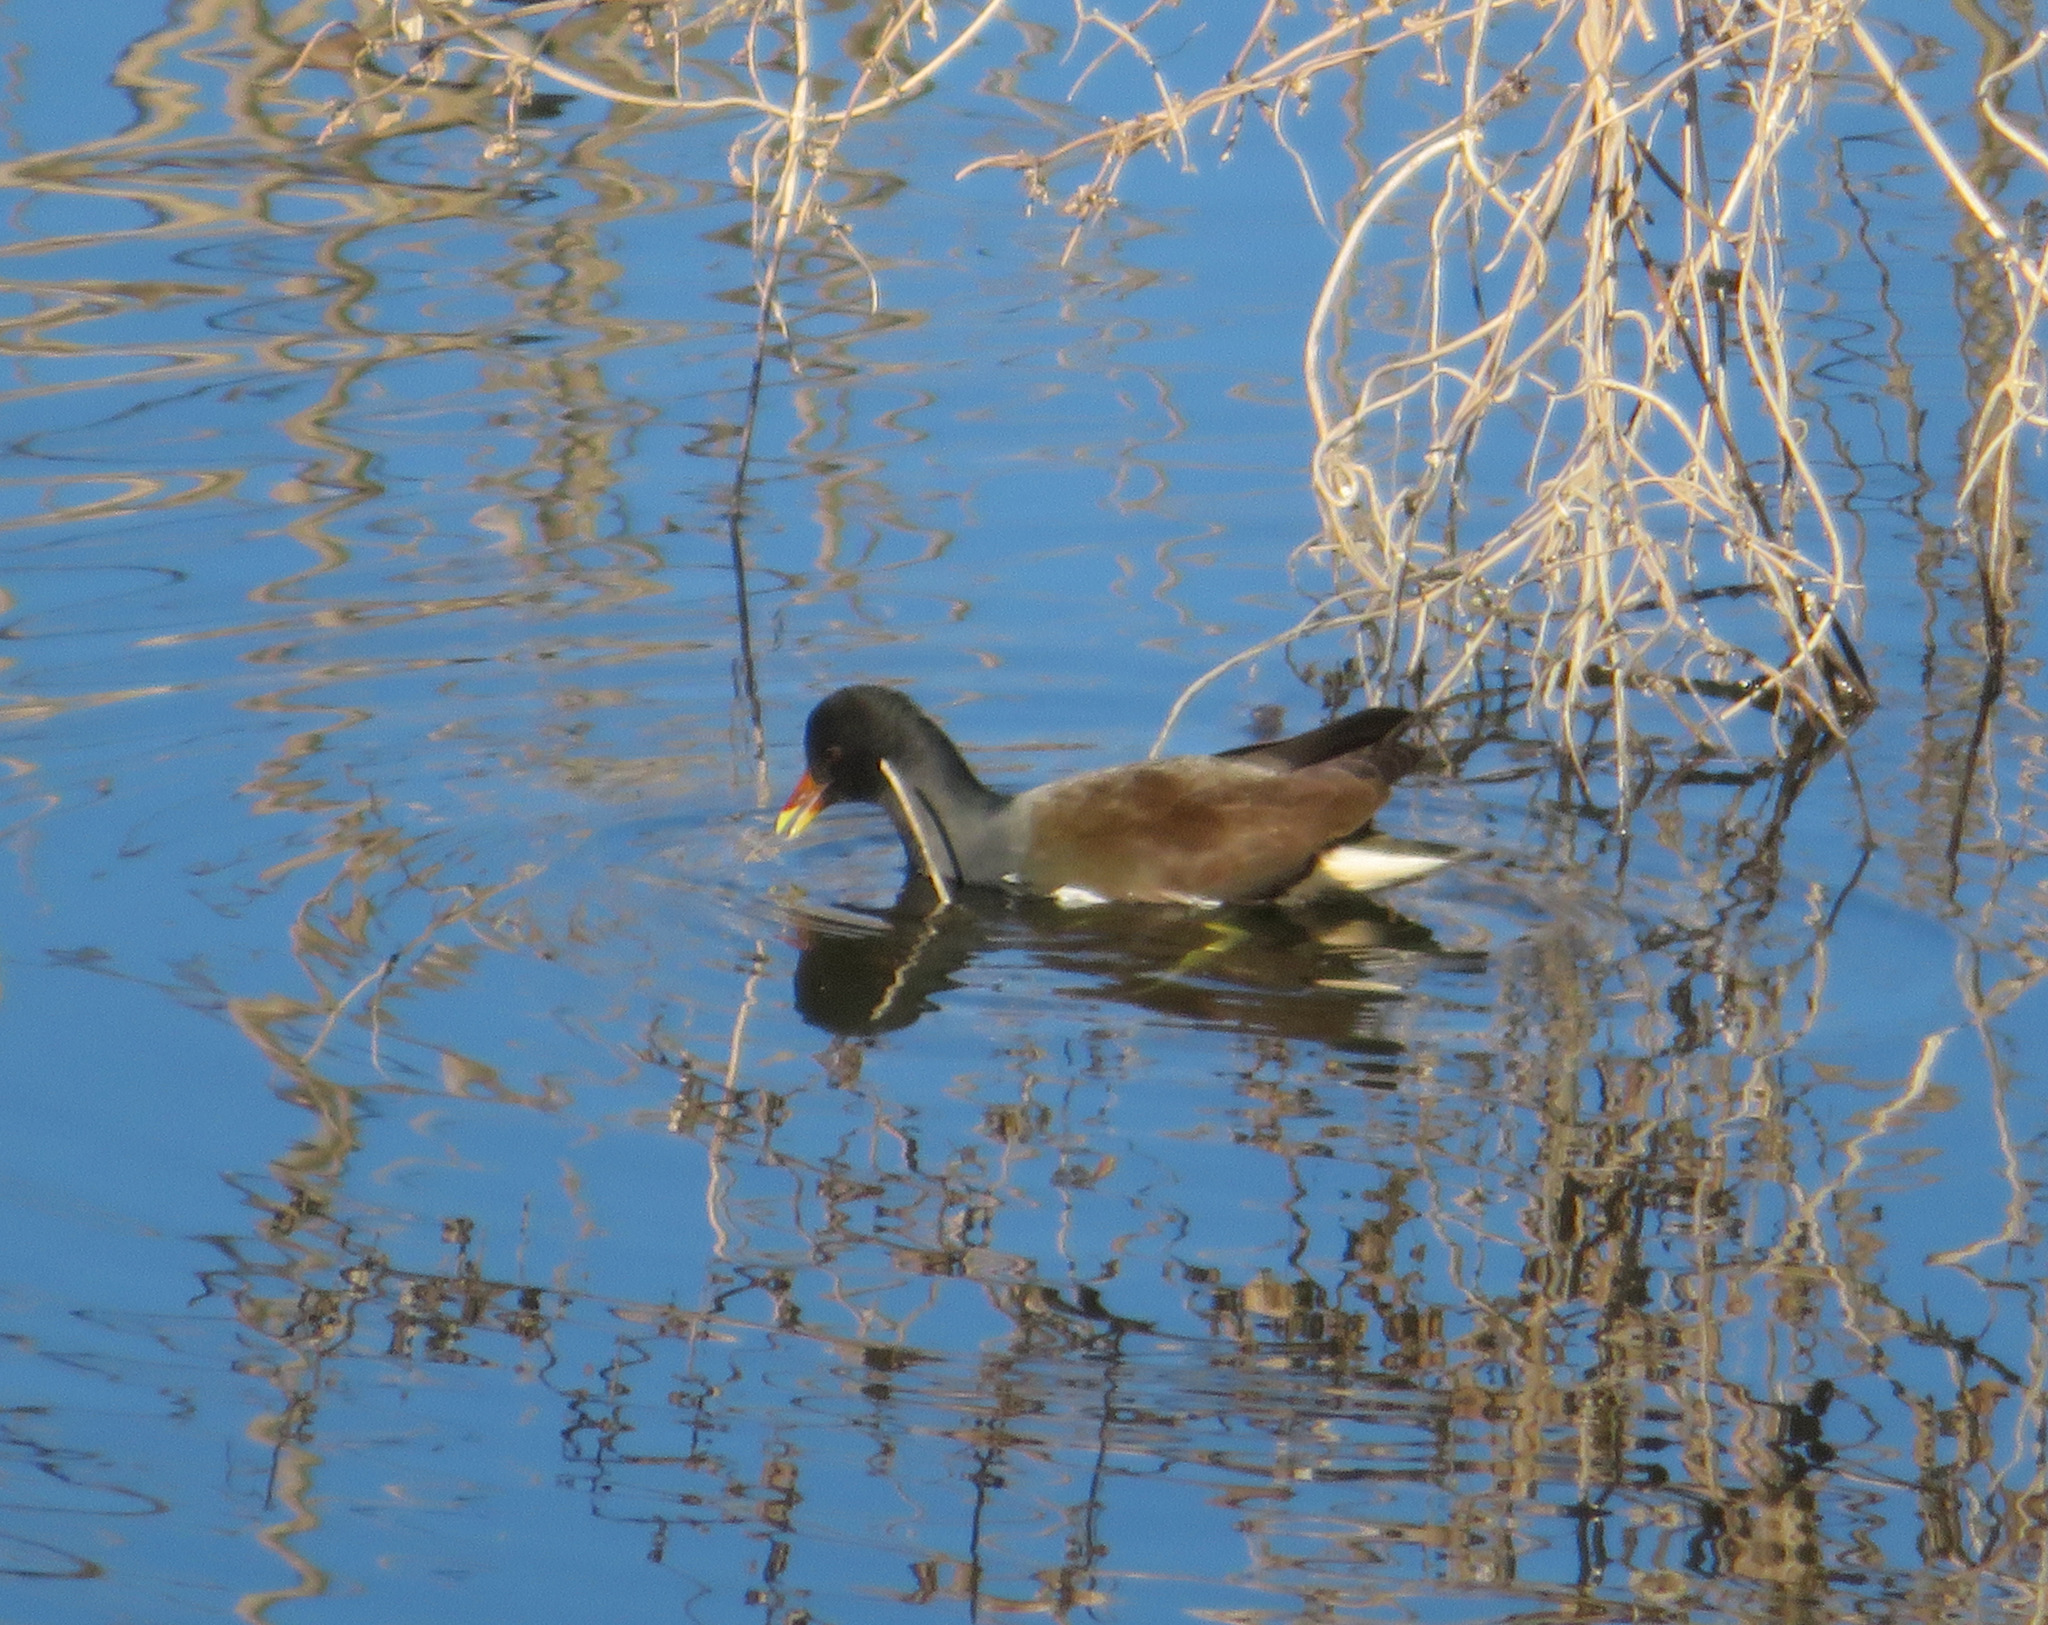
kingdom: Animalia
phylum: Chordata
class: Aves
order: Gruiformes
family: Rallidae
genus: Gallinula
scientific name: Gallinula chloropus
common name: Common moorhen
